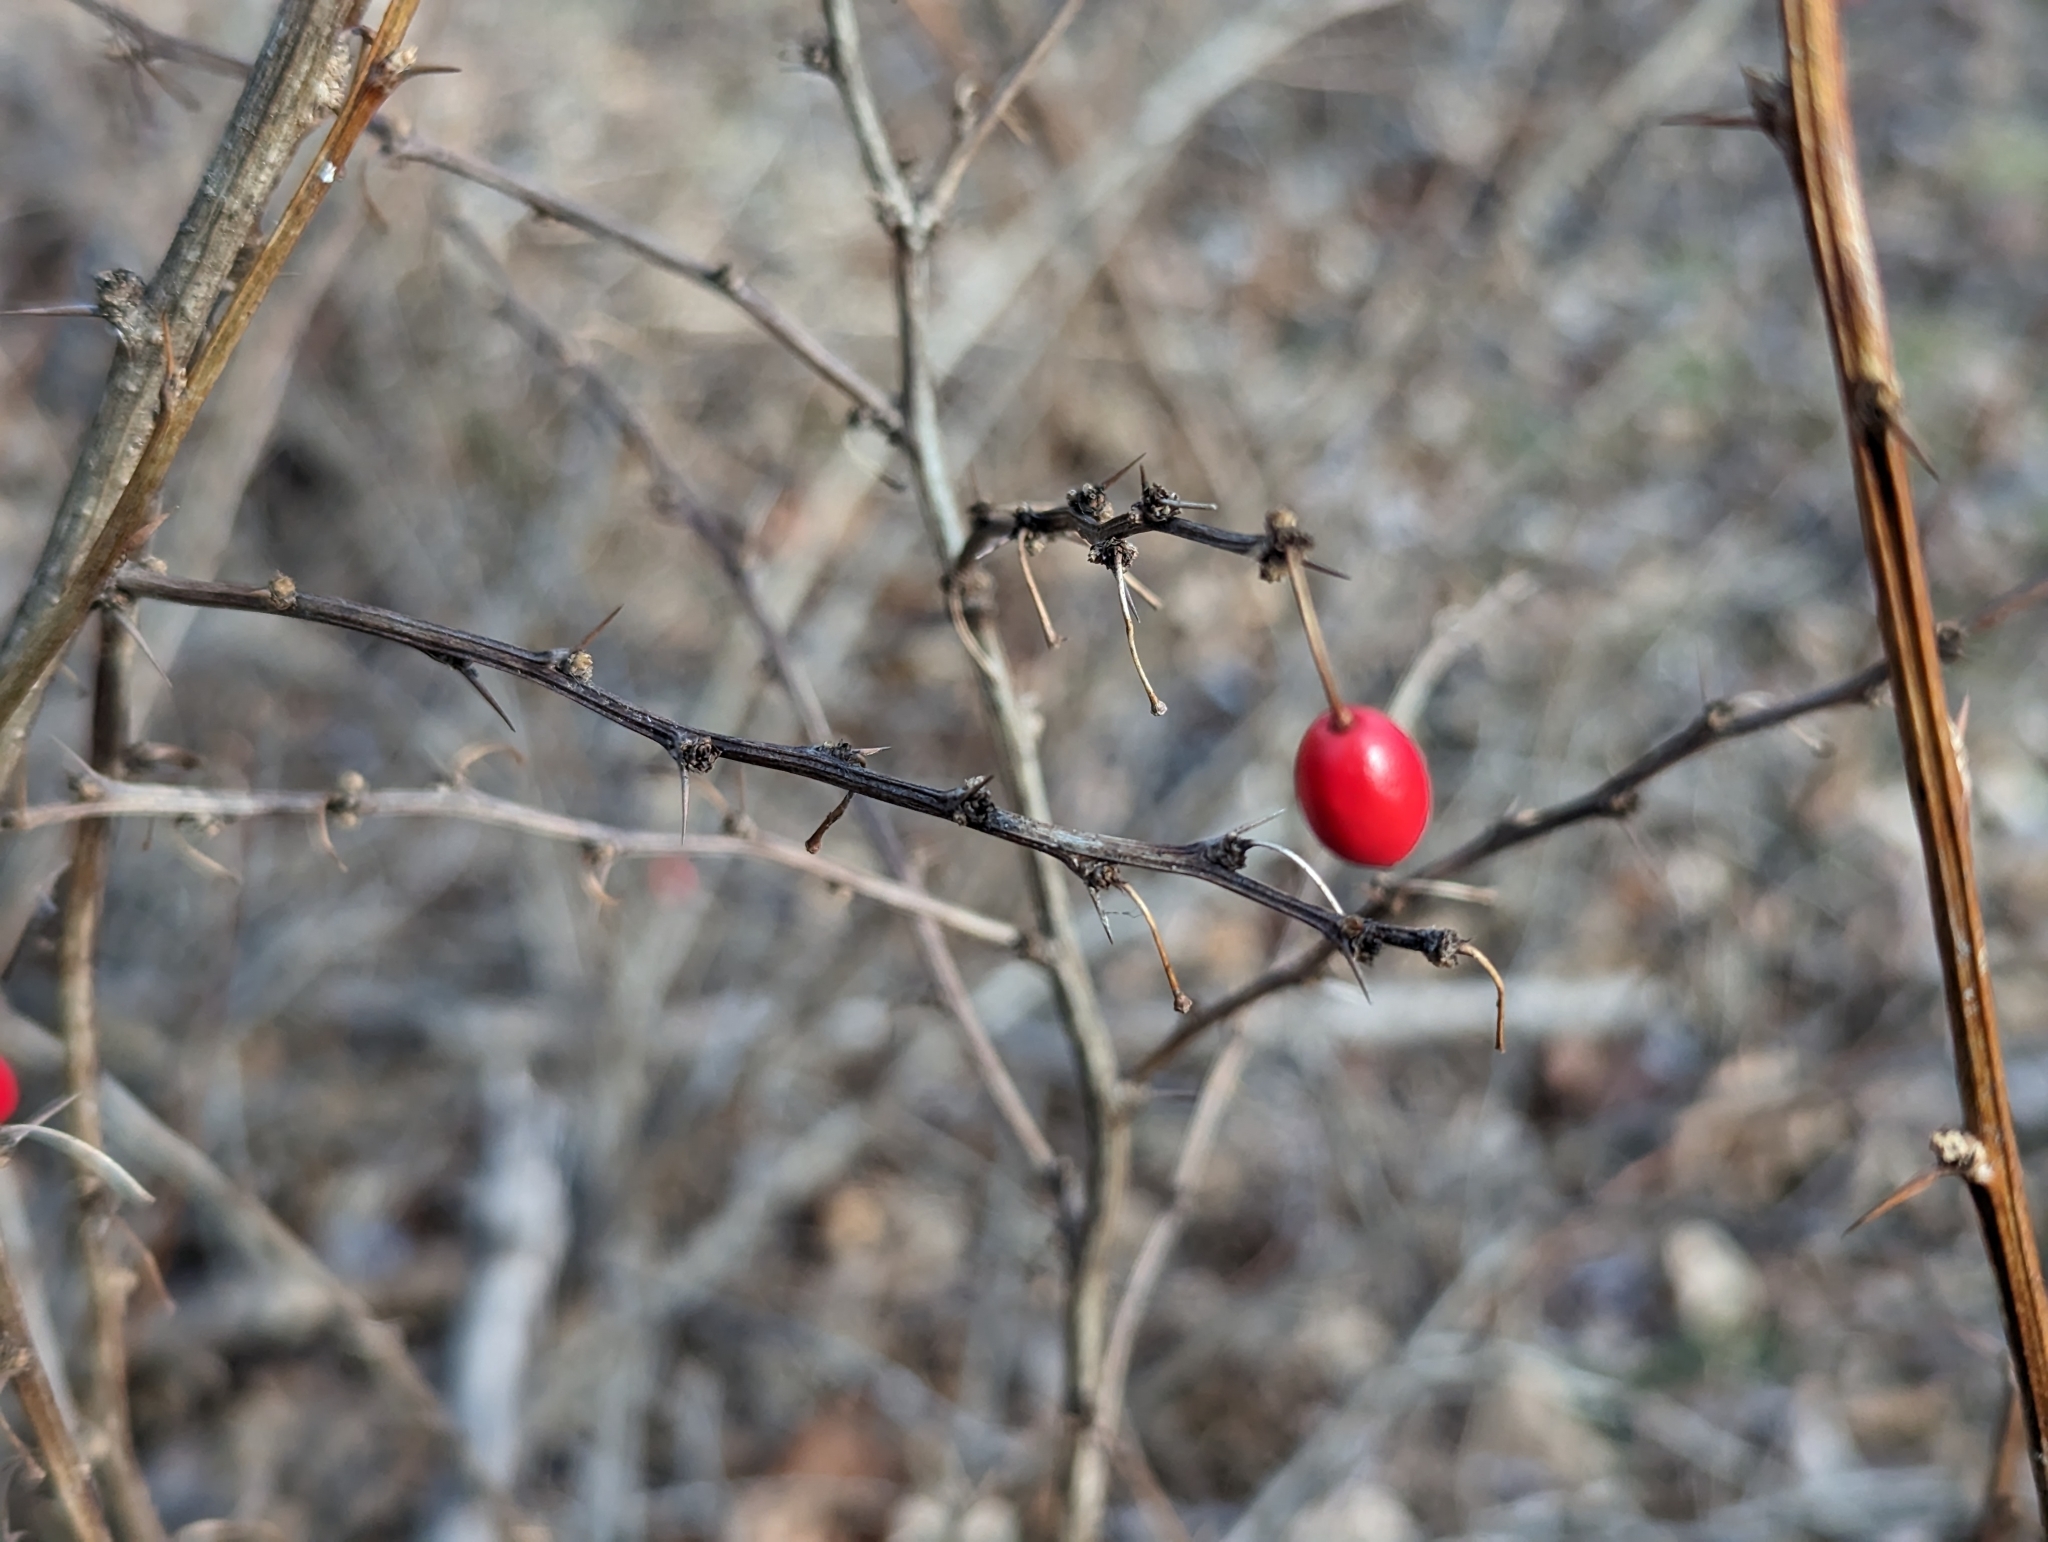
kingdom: Plantae
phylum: Tracheophyta
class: Magnoliopsida
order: Ranunculales
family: Berberidaceae
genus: Berberis
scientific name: Berberis thunbergii
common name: Japanese barberry
